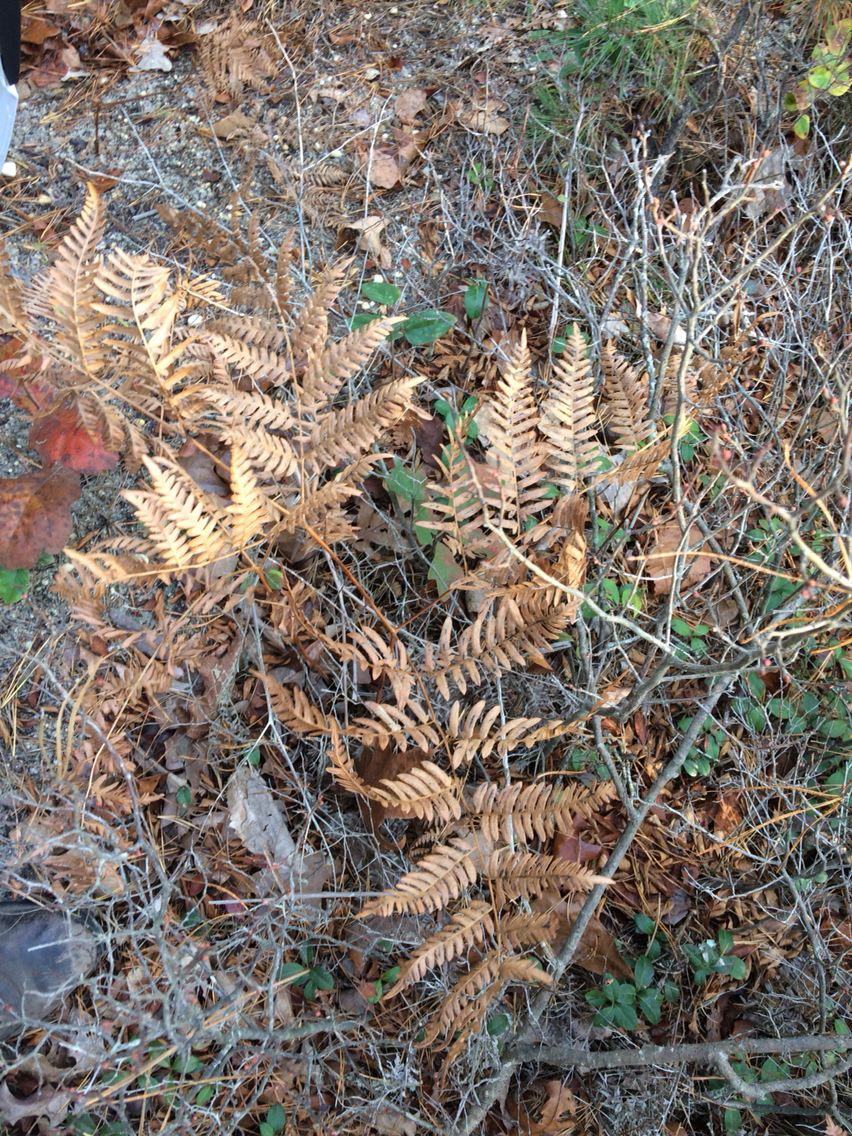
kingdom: Plantae
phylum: Tracheophyta
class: Polypodiopsida
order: Polypodiales
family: Dennstaedtiaceae
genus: Pteridium
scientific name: Pteridium aquilinum
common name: Bracken
